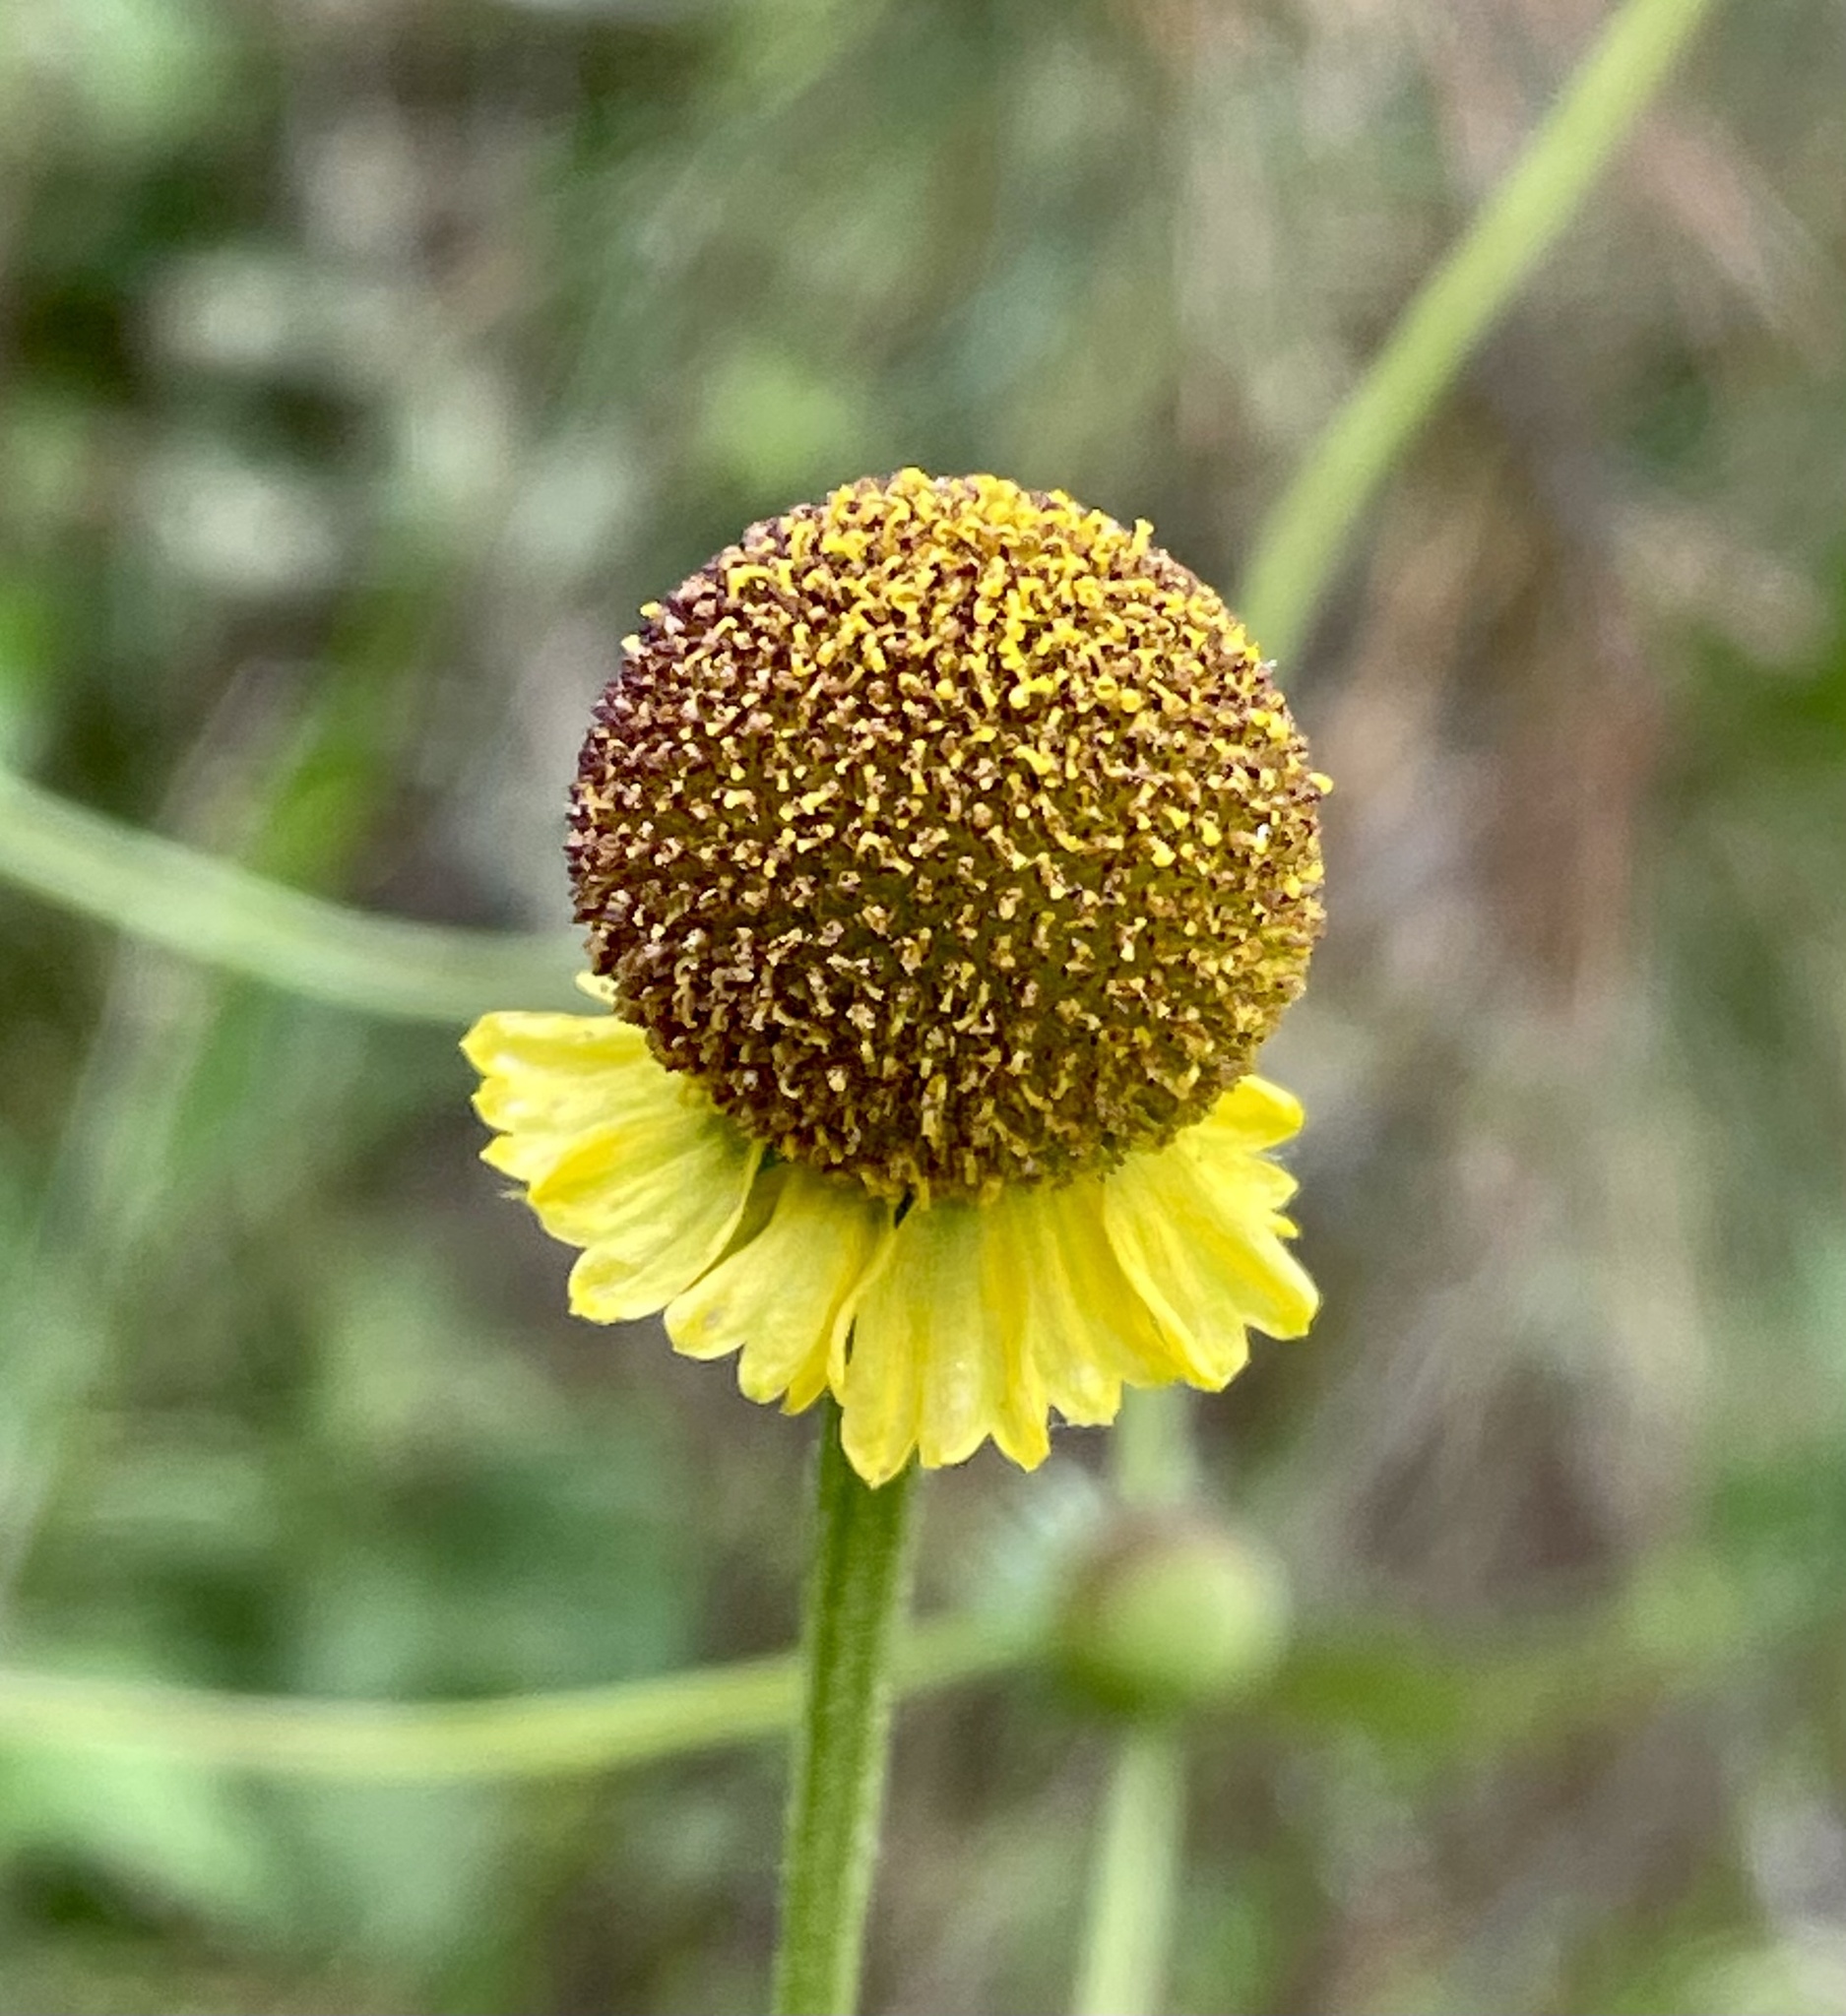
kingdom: Plantae
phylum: Tracheophyta
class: Magnoliopsida
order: Asterales
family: Asteraceae
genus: Helenium
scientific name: Helenium puberulum
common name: Sneezewort
